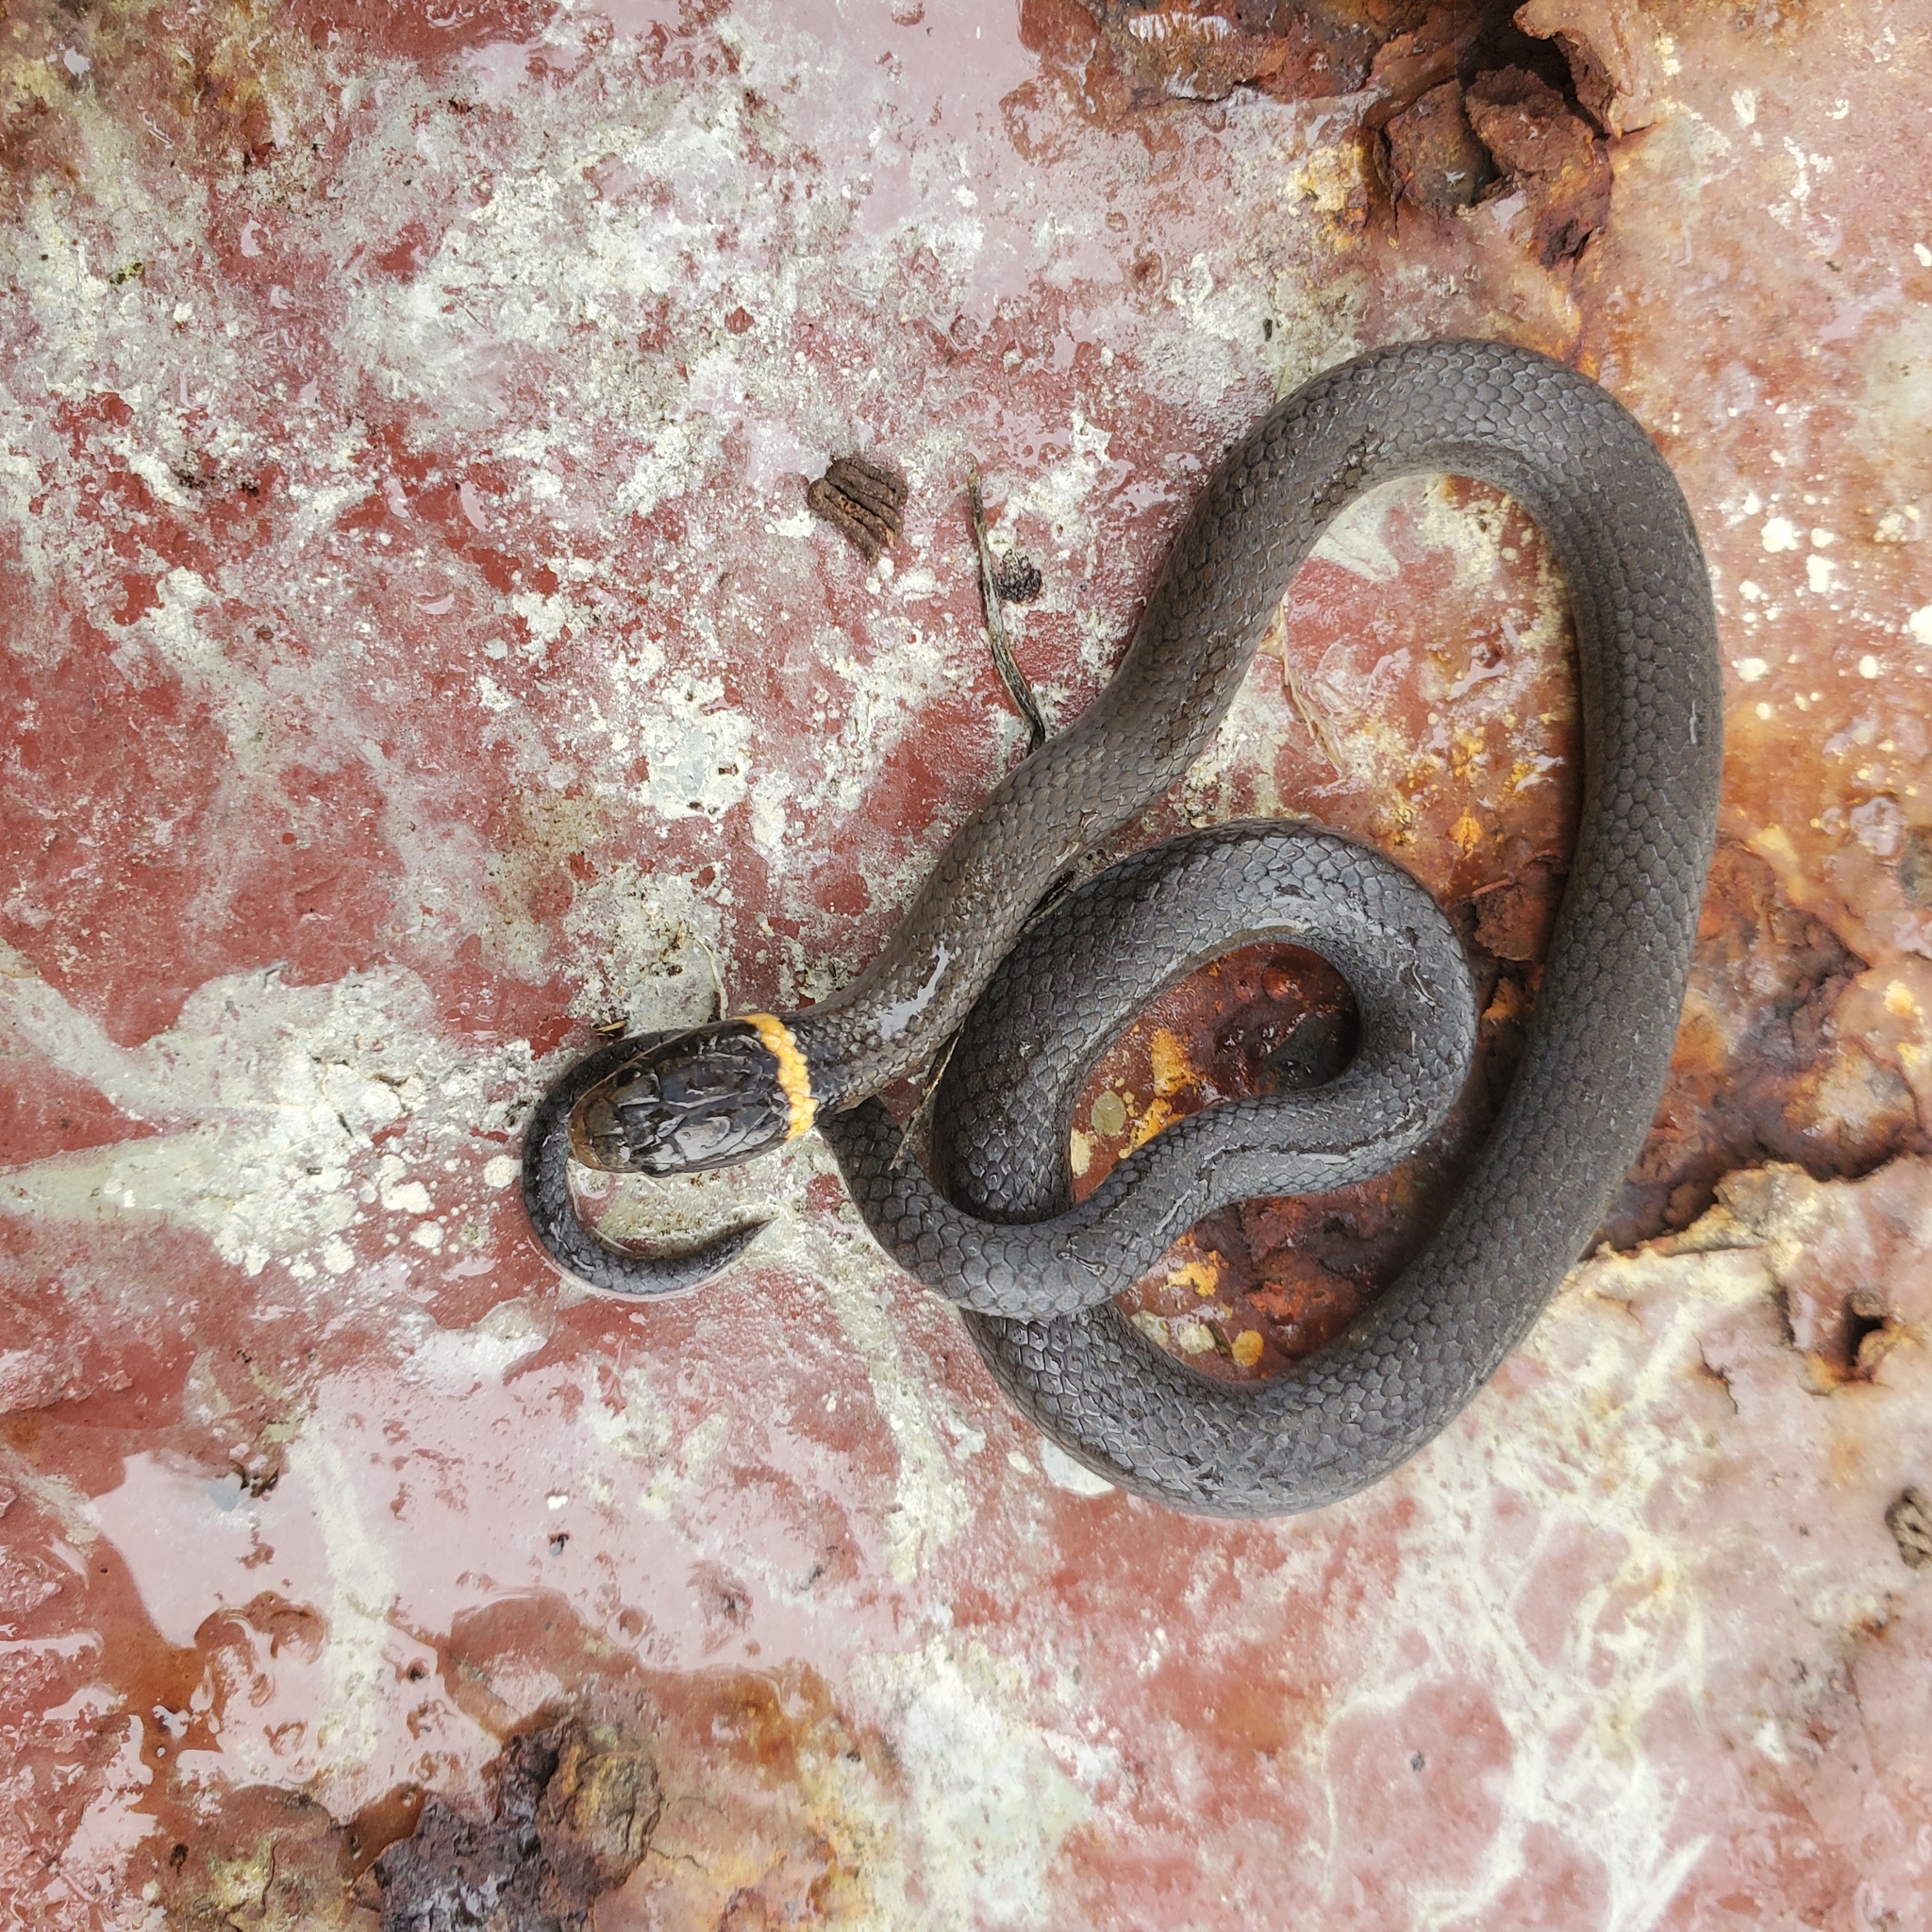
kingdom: Animalia
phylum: Chordata
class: Squamata
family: Colubridae
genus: Diadophis
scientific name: Diadophis punctatus
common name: Ringneck snake
